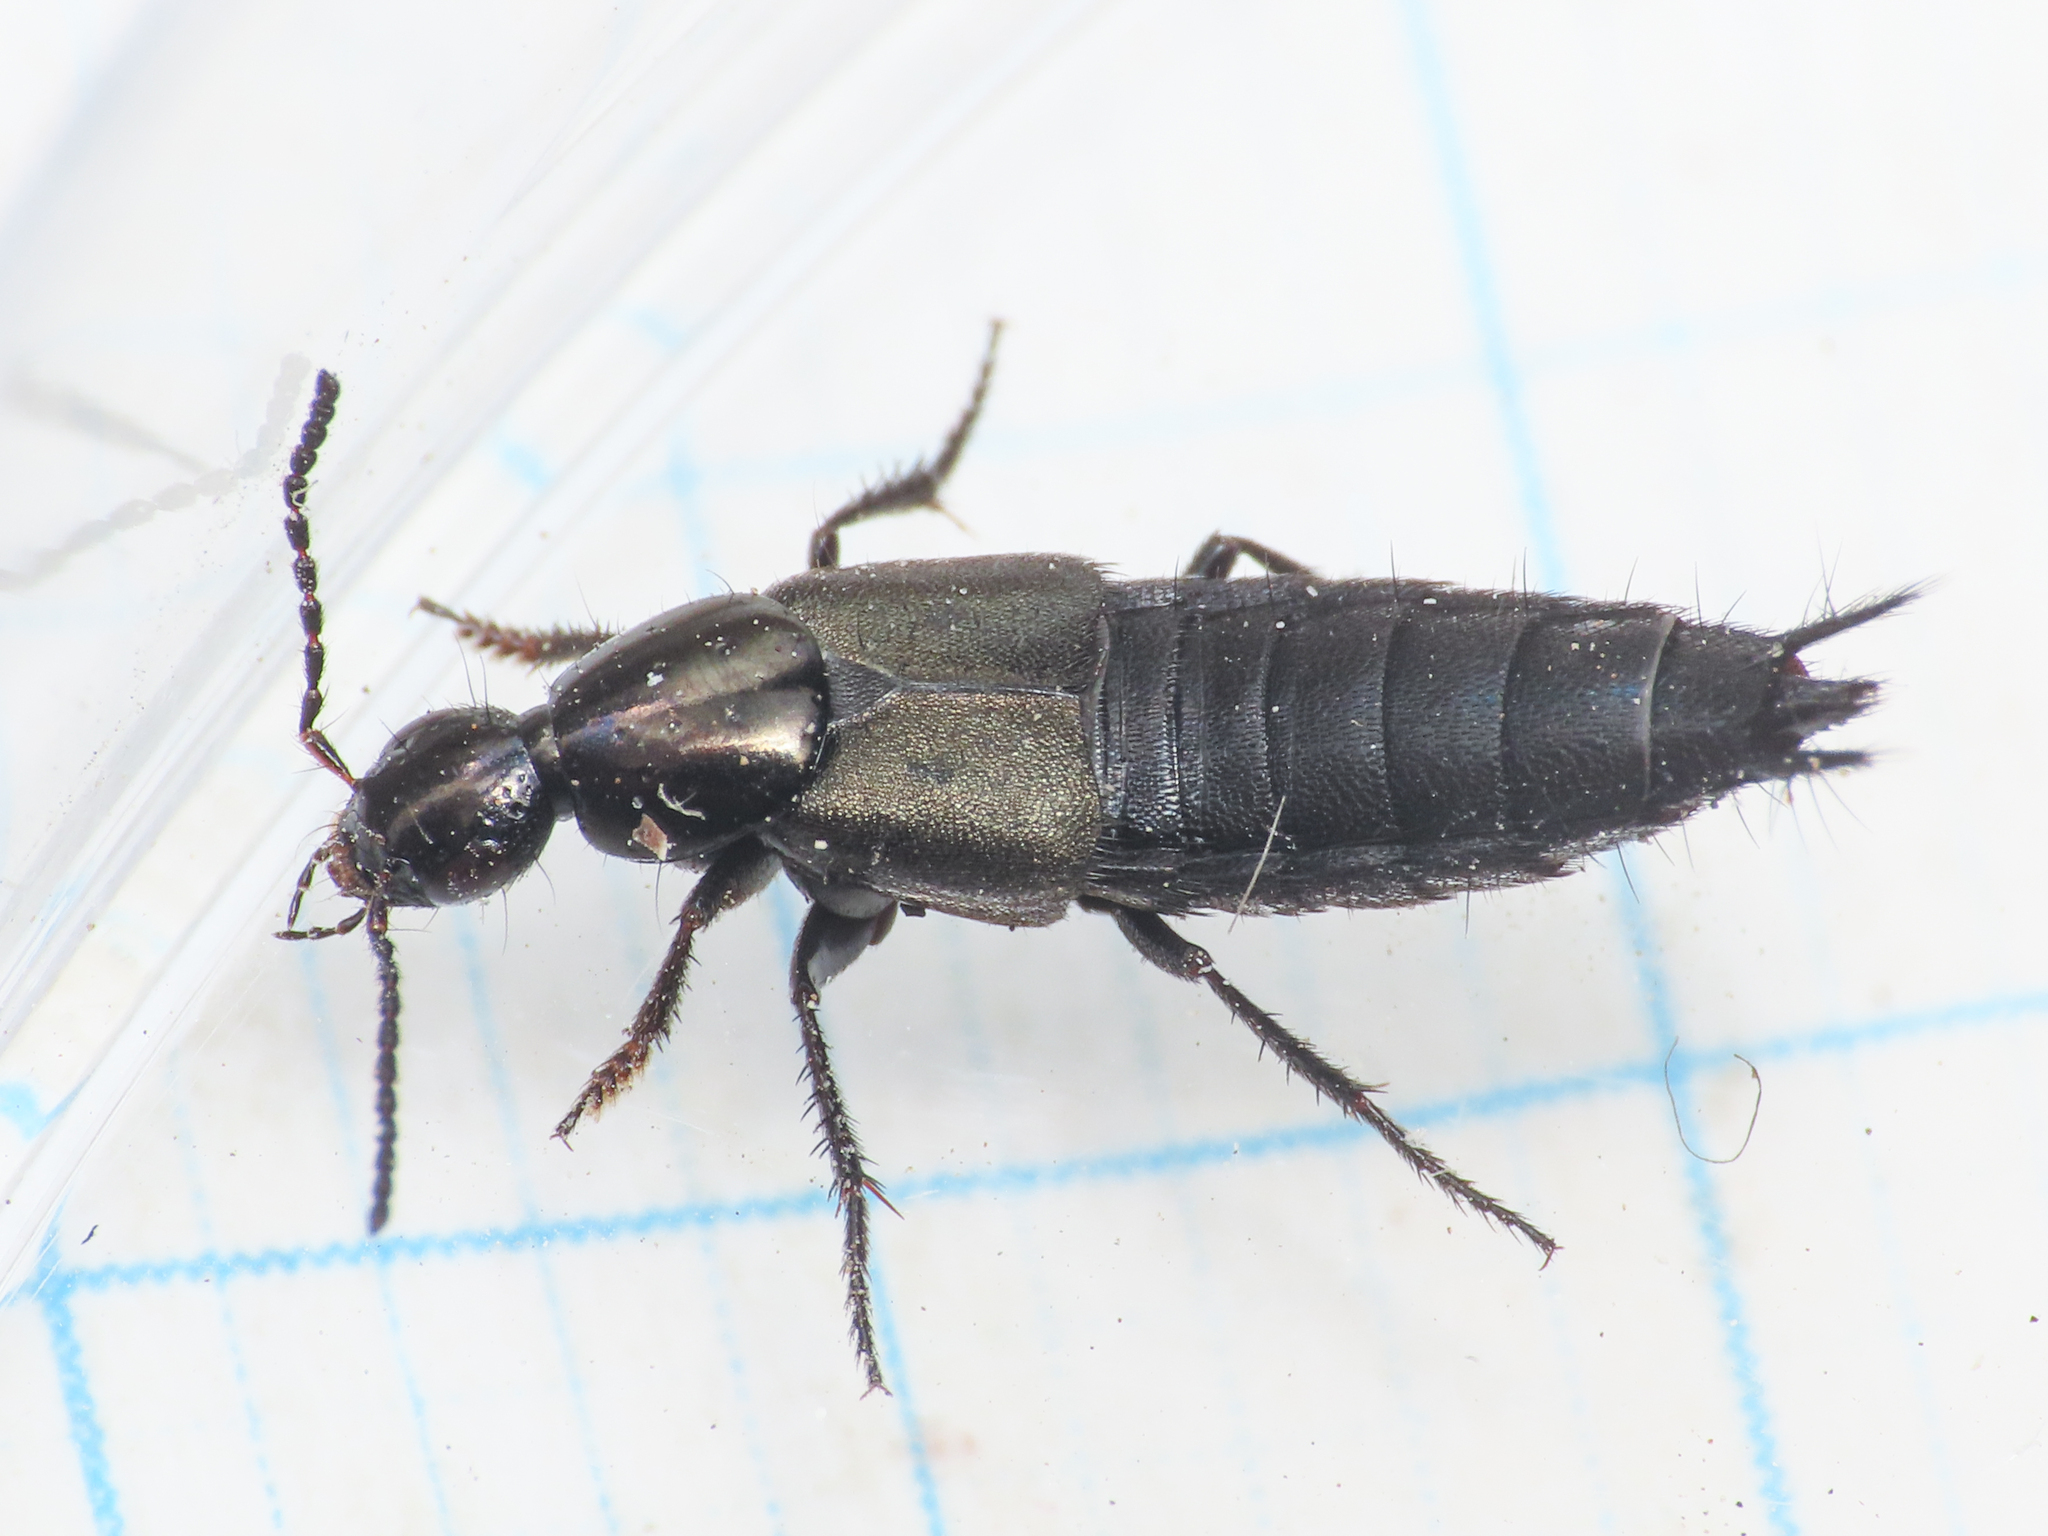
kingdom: Animalia
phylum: Arthropoda
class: Insecta
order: Coleoptera
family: Staphylinidae
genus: Philonthus
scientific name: Philonthus cognatus
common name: Staph beetle
